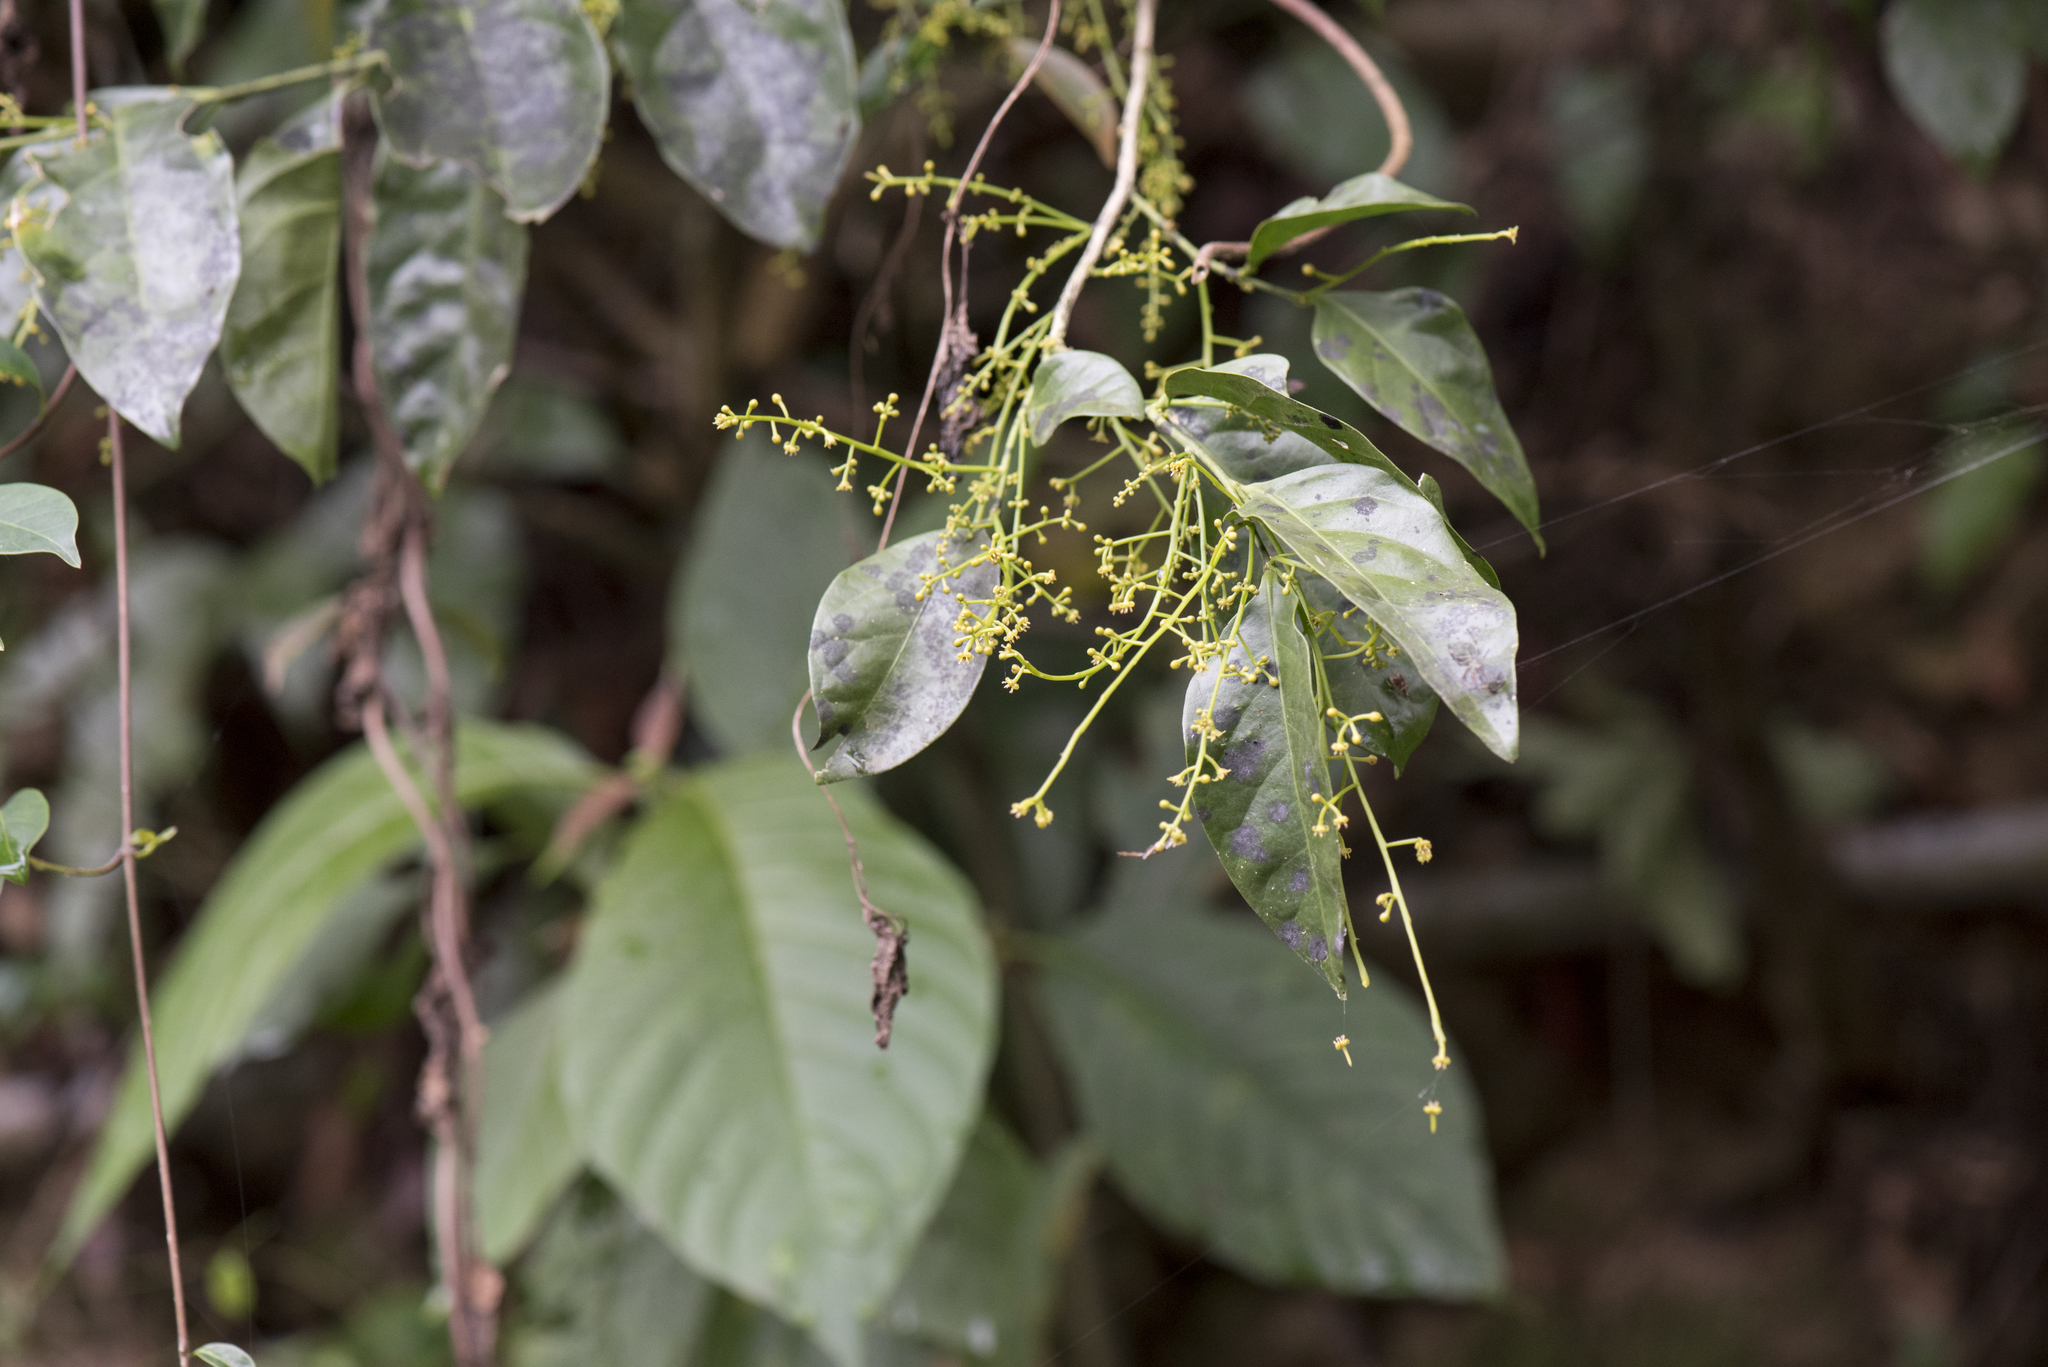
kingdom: Plantae
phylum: Tracheophyta
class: Magnoliopsida
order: Santalales
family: Opiliaceae
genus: Champereia
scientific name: Champereia manillana
